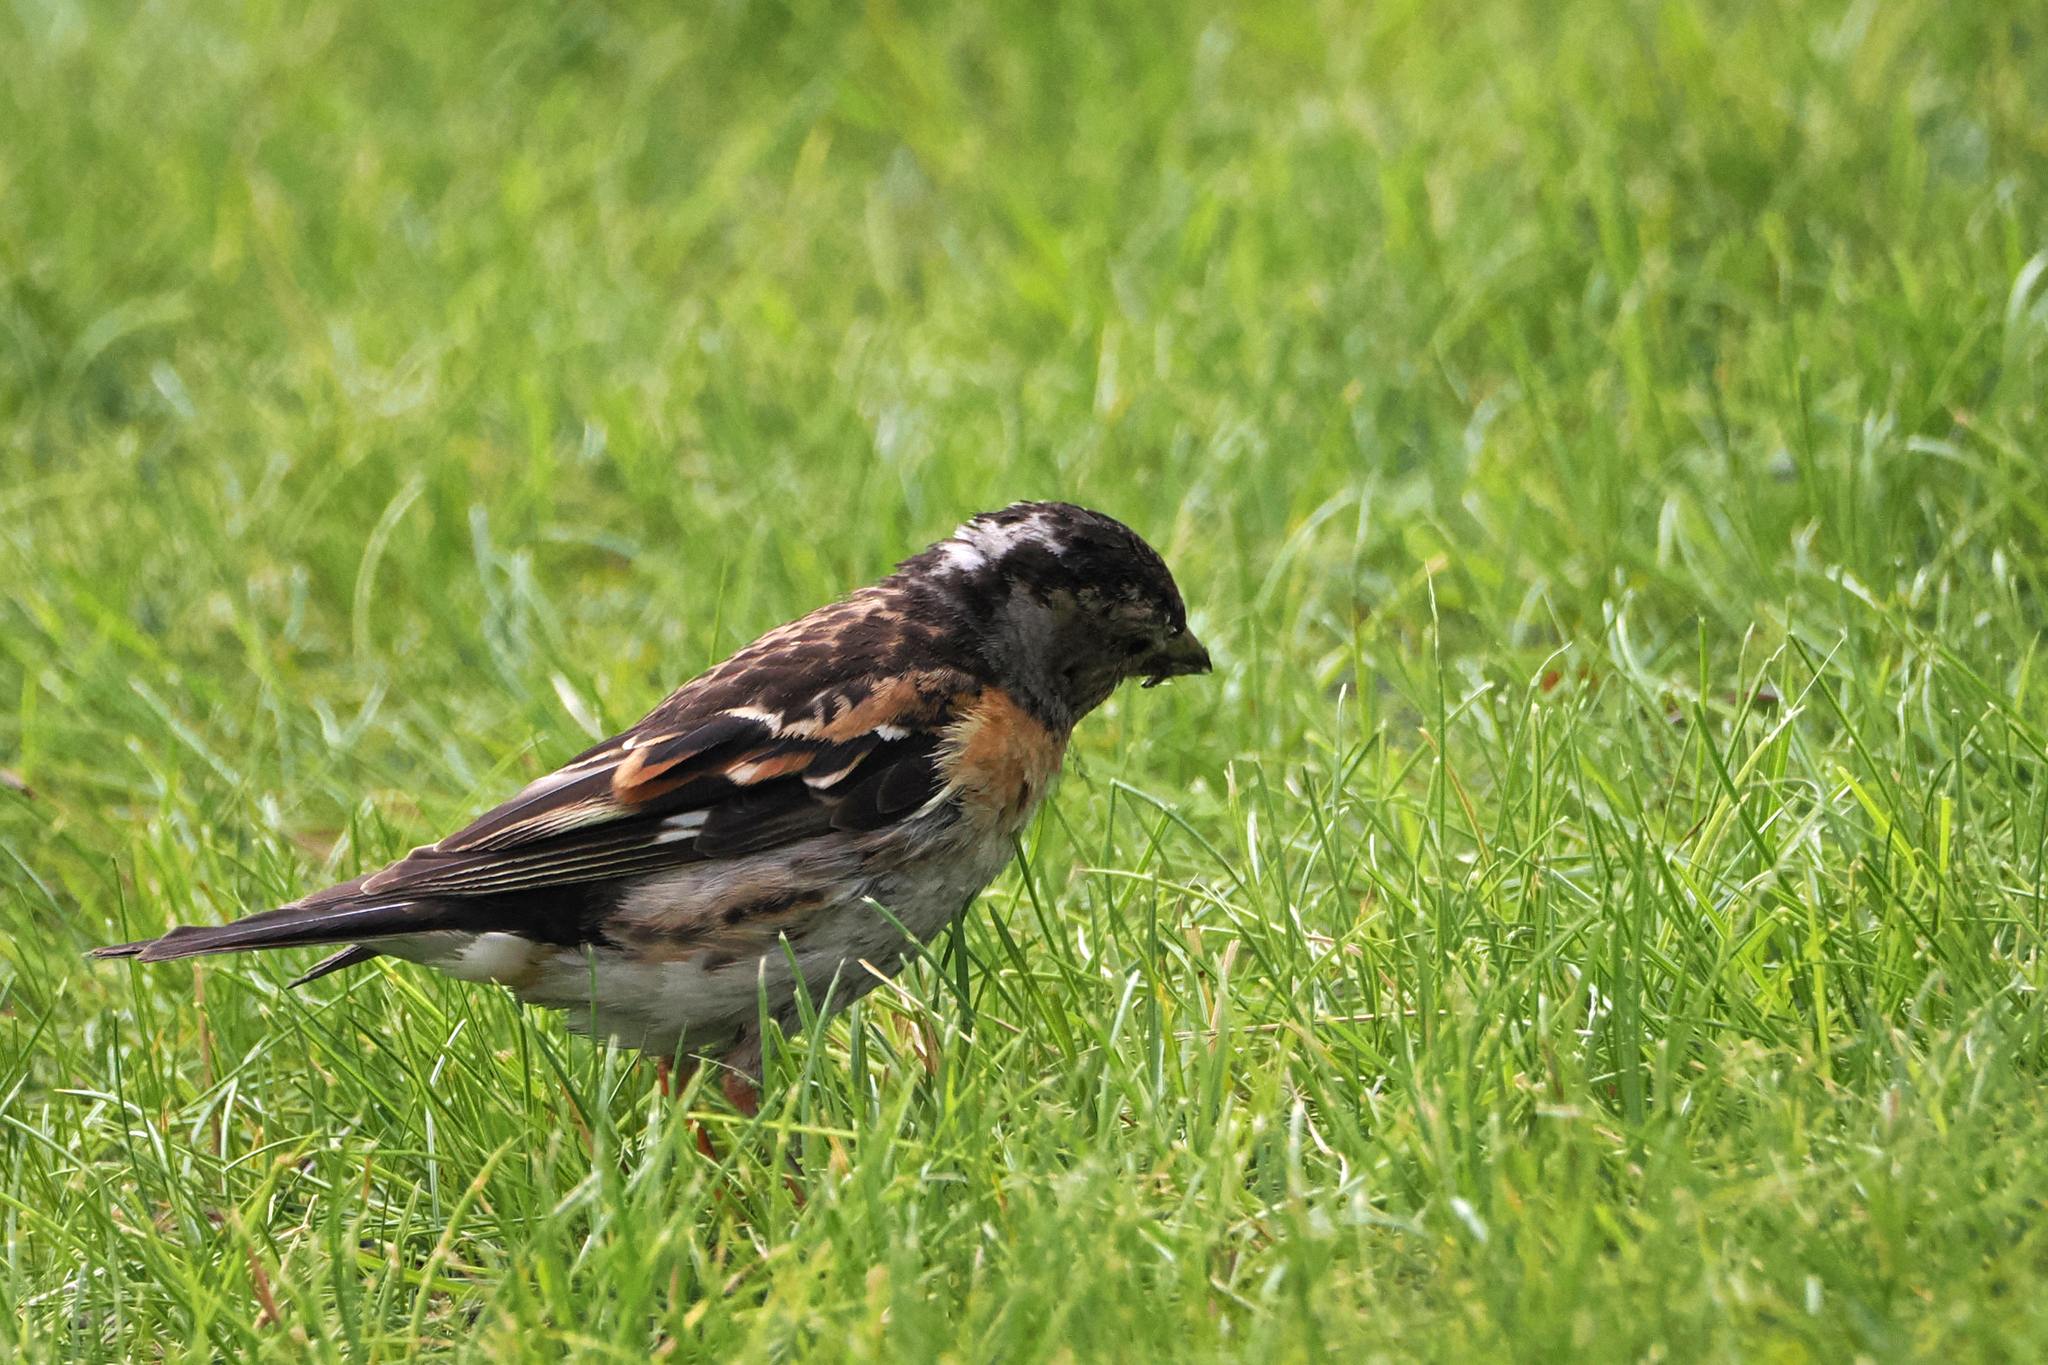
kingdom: Animalia
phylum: Chordata
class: Aves
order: Passeriformes
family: Fringillidae
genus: Fringilla
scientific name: Fringilla montifringilla
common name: Brambling
